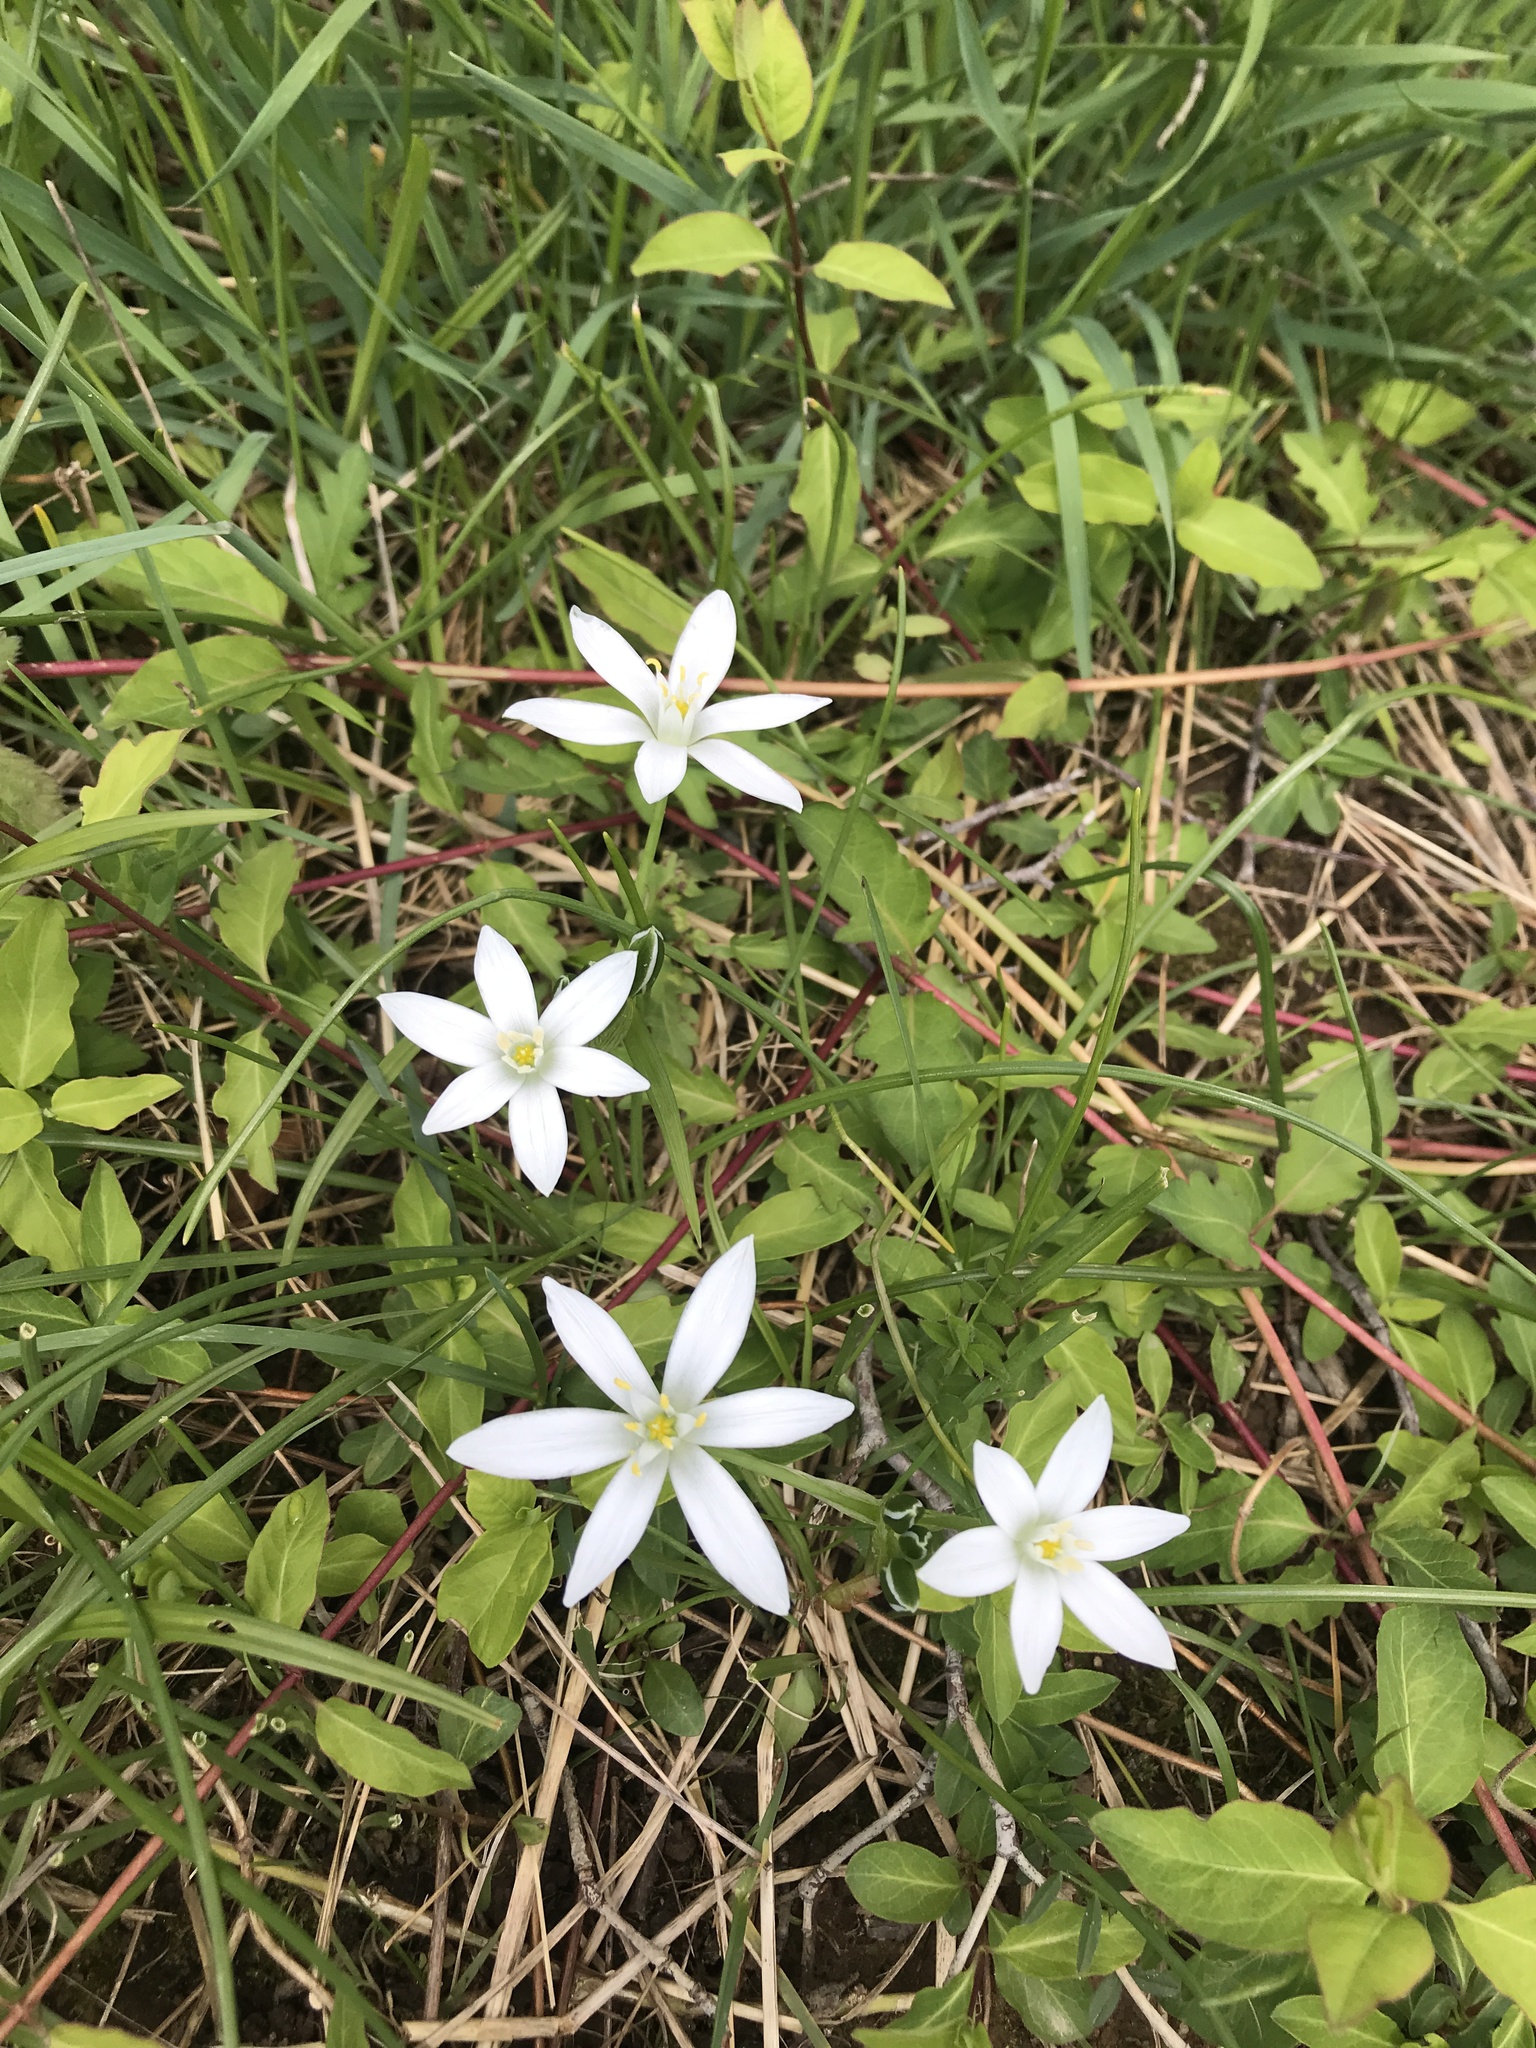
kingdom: Plantae
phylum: Tracheophyta
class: Liliopsida
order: Asparagales
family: Asparagaceae
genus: Ornithogalum
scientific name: Ornithogalum umbellatum
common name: Garden star-of-bethlehem
